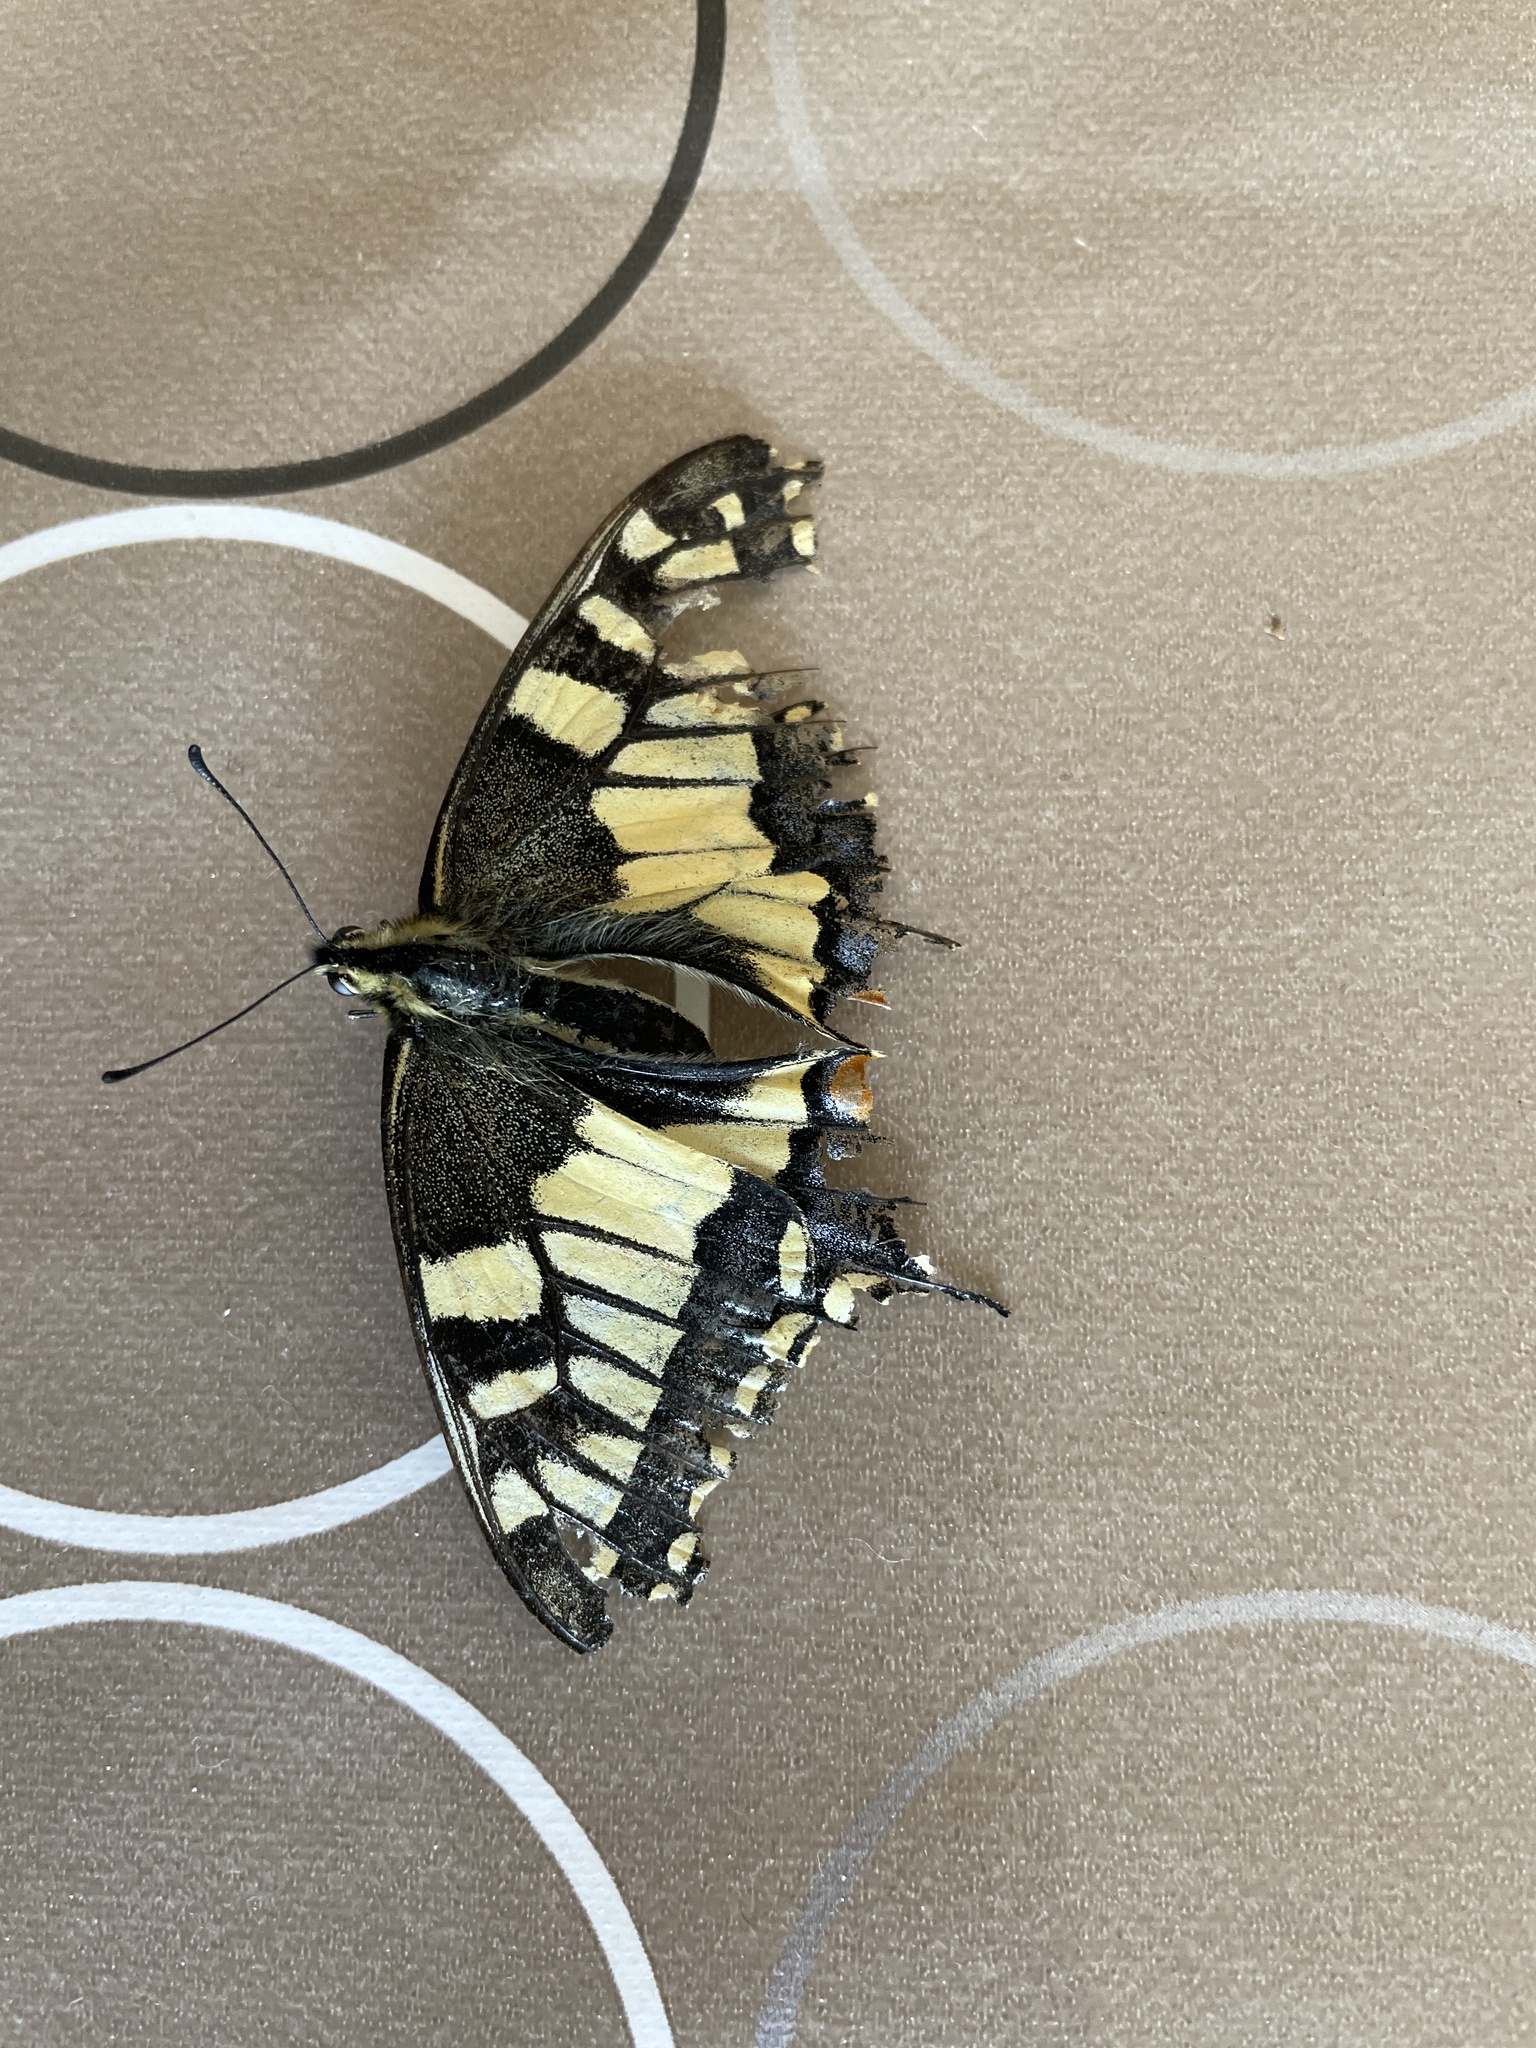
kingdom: Animalia
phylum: Arthropoda
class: Insecta
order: Lepidoptera
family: Papilionidae
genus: Papilio
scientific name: Papilio machaon
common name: Swallowtail
